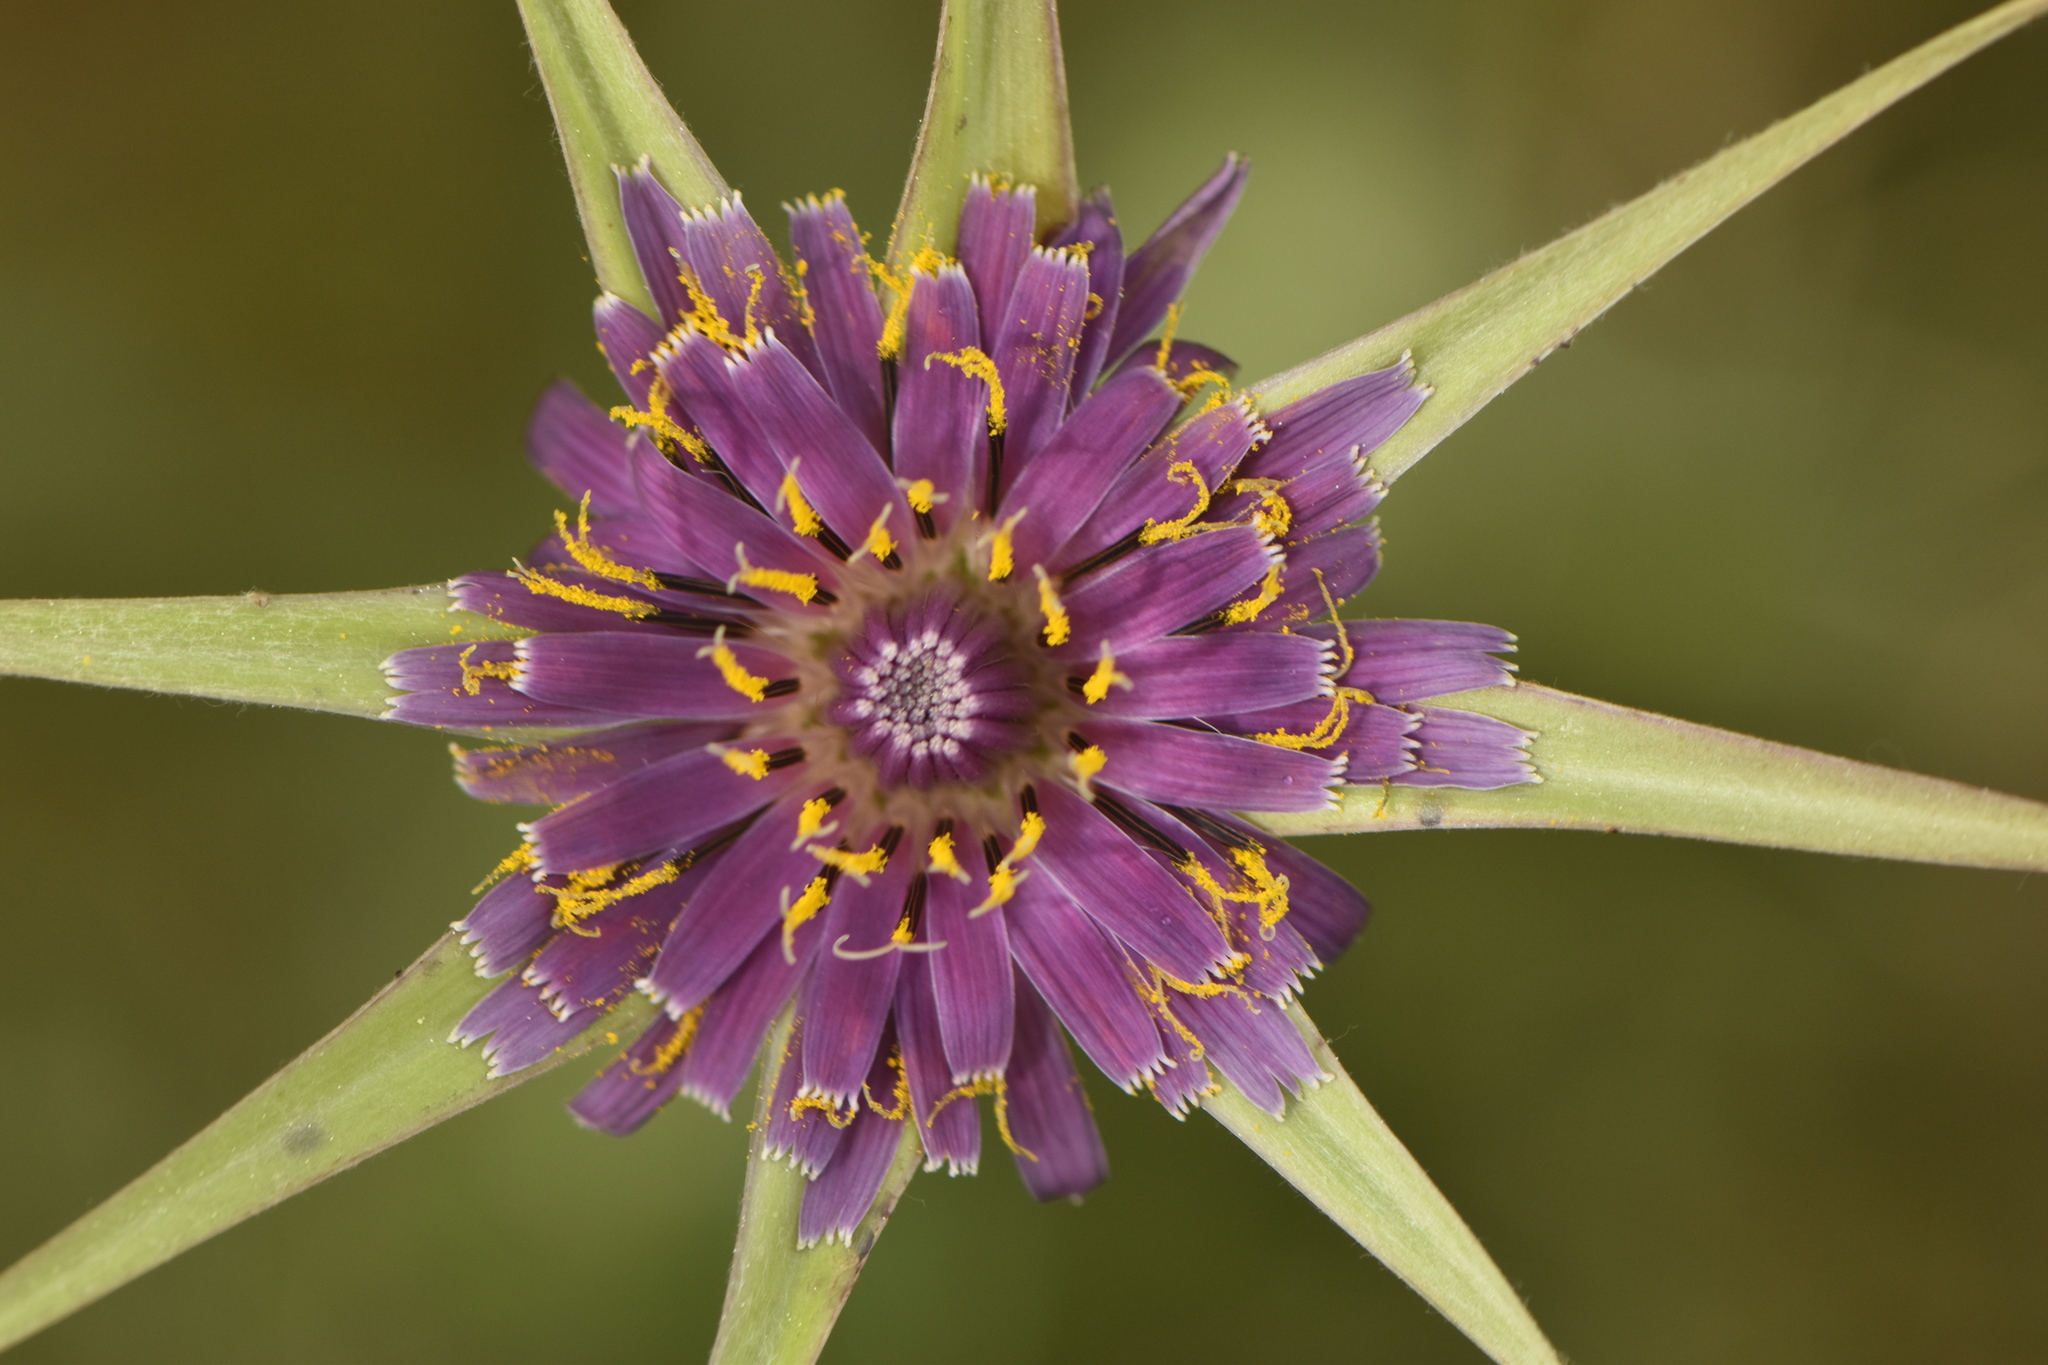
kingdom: Plantae
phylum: Tracheophyta
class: Magnoliopsida
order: Asterales
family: Asteraceae
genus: Tragopogon
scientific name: Tragopogon porrifolius
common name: Salsify
